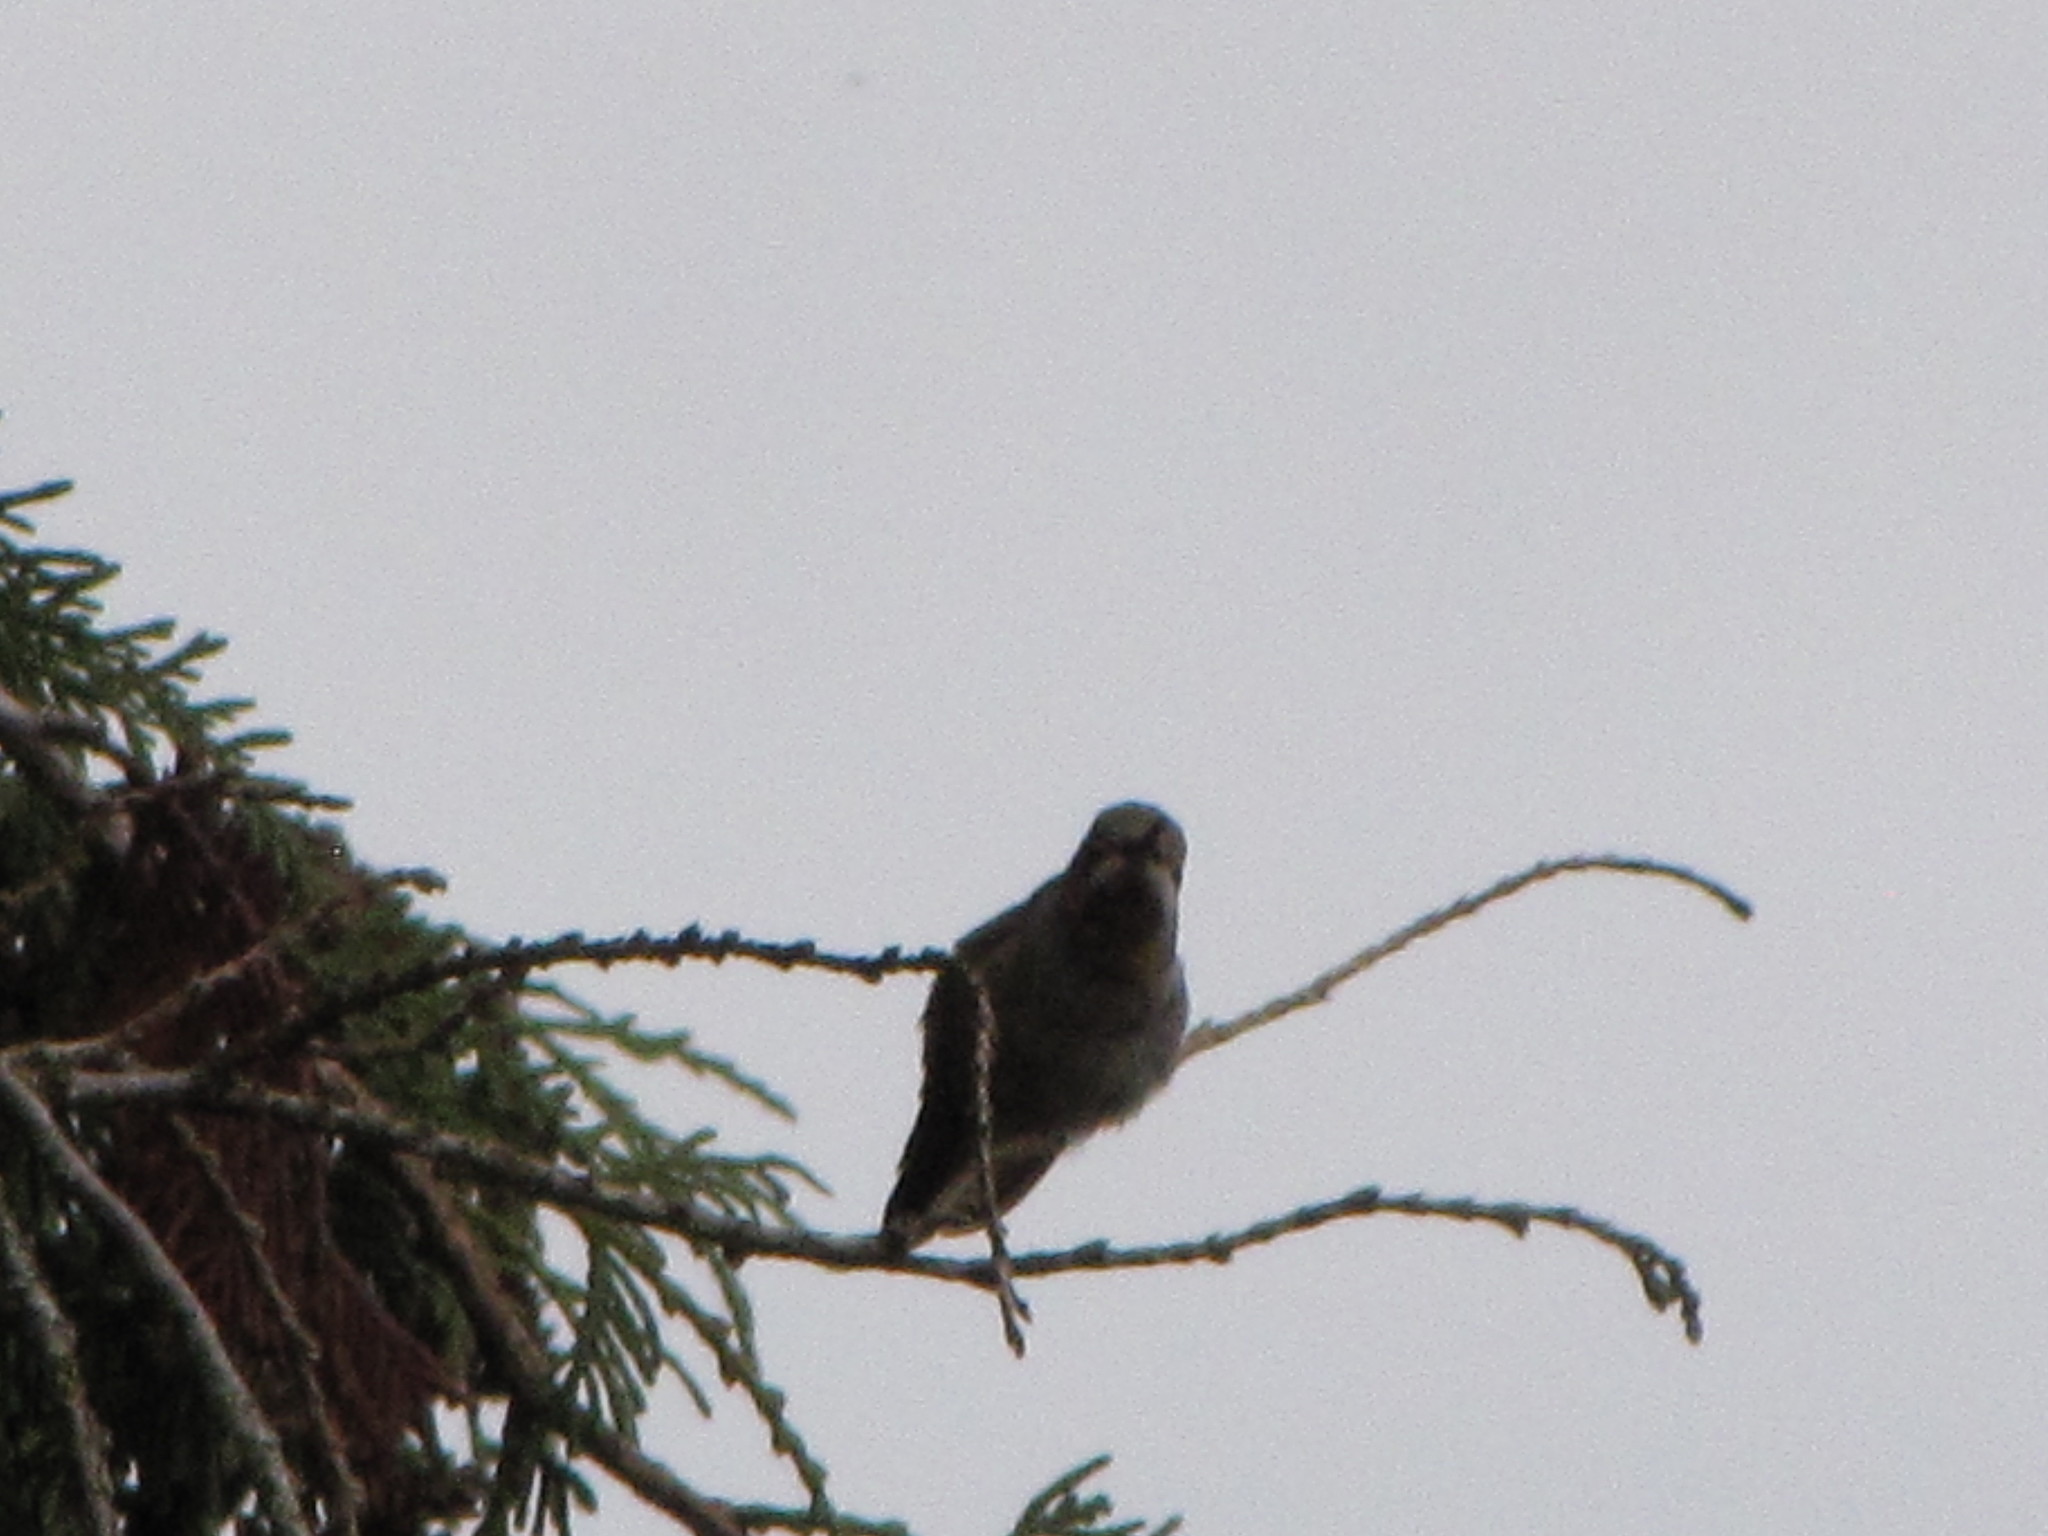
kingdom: Animalia
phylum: Chordata
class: Aves
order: Apodiformes
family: Trochilidae
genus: Calypte
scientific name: Calypte anna
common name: Anna's hummingbird
